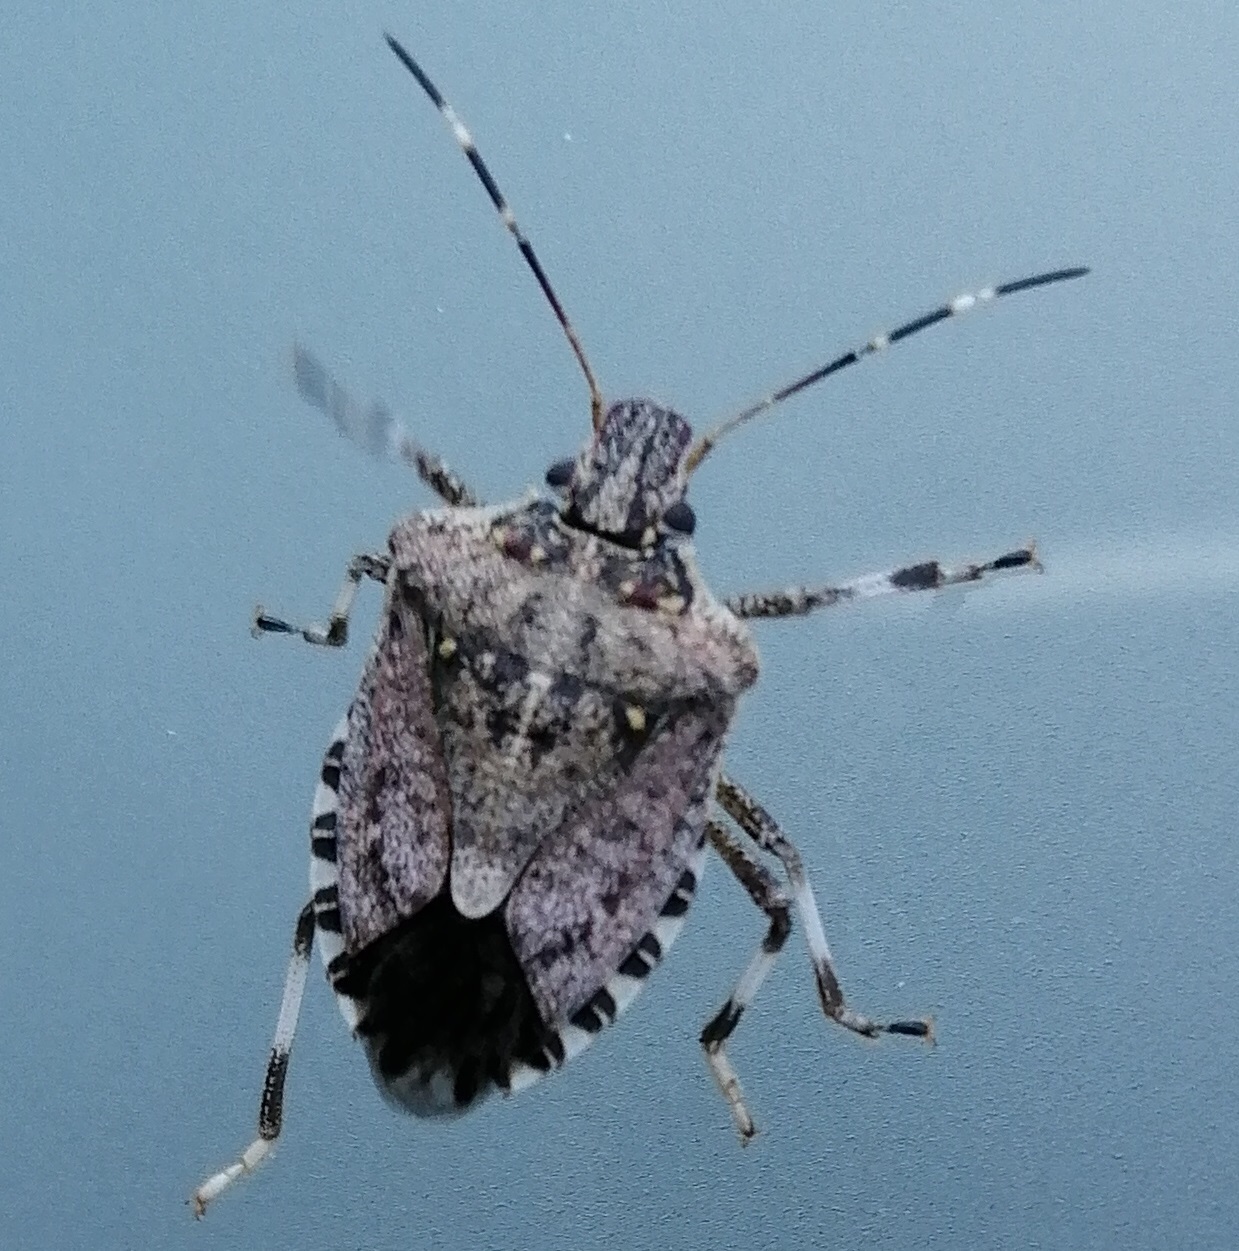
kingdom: Animalia
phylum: Arthropoda
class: Insecta
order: Hemiptera
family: Pentatomidae
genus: Halyomorpha
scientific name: Halyomorpha halys
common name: Brown marmorated stink bug
